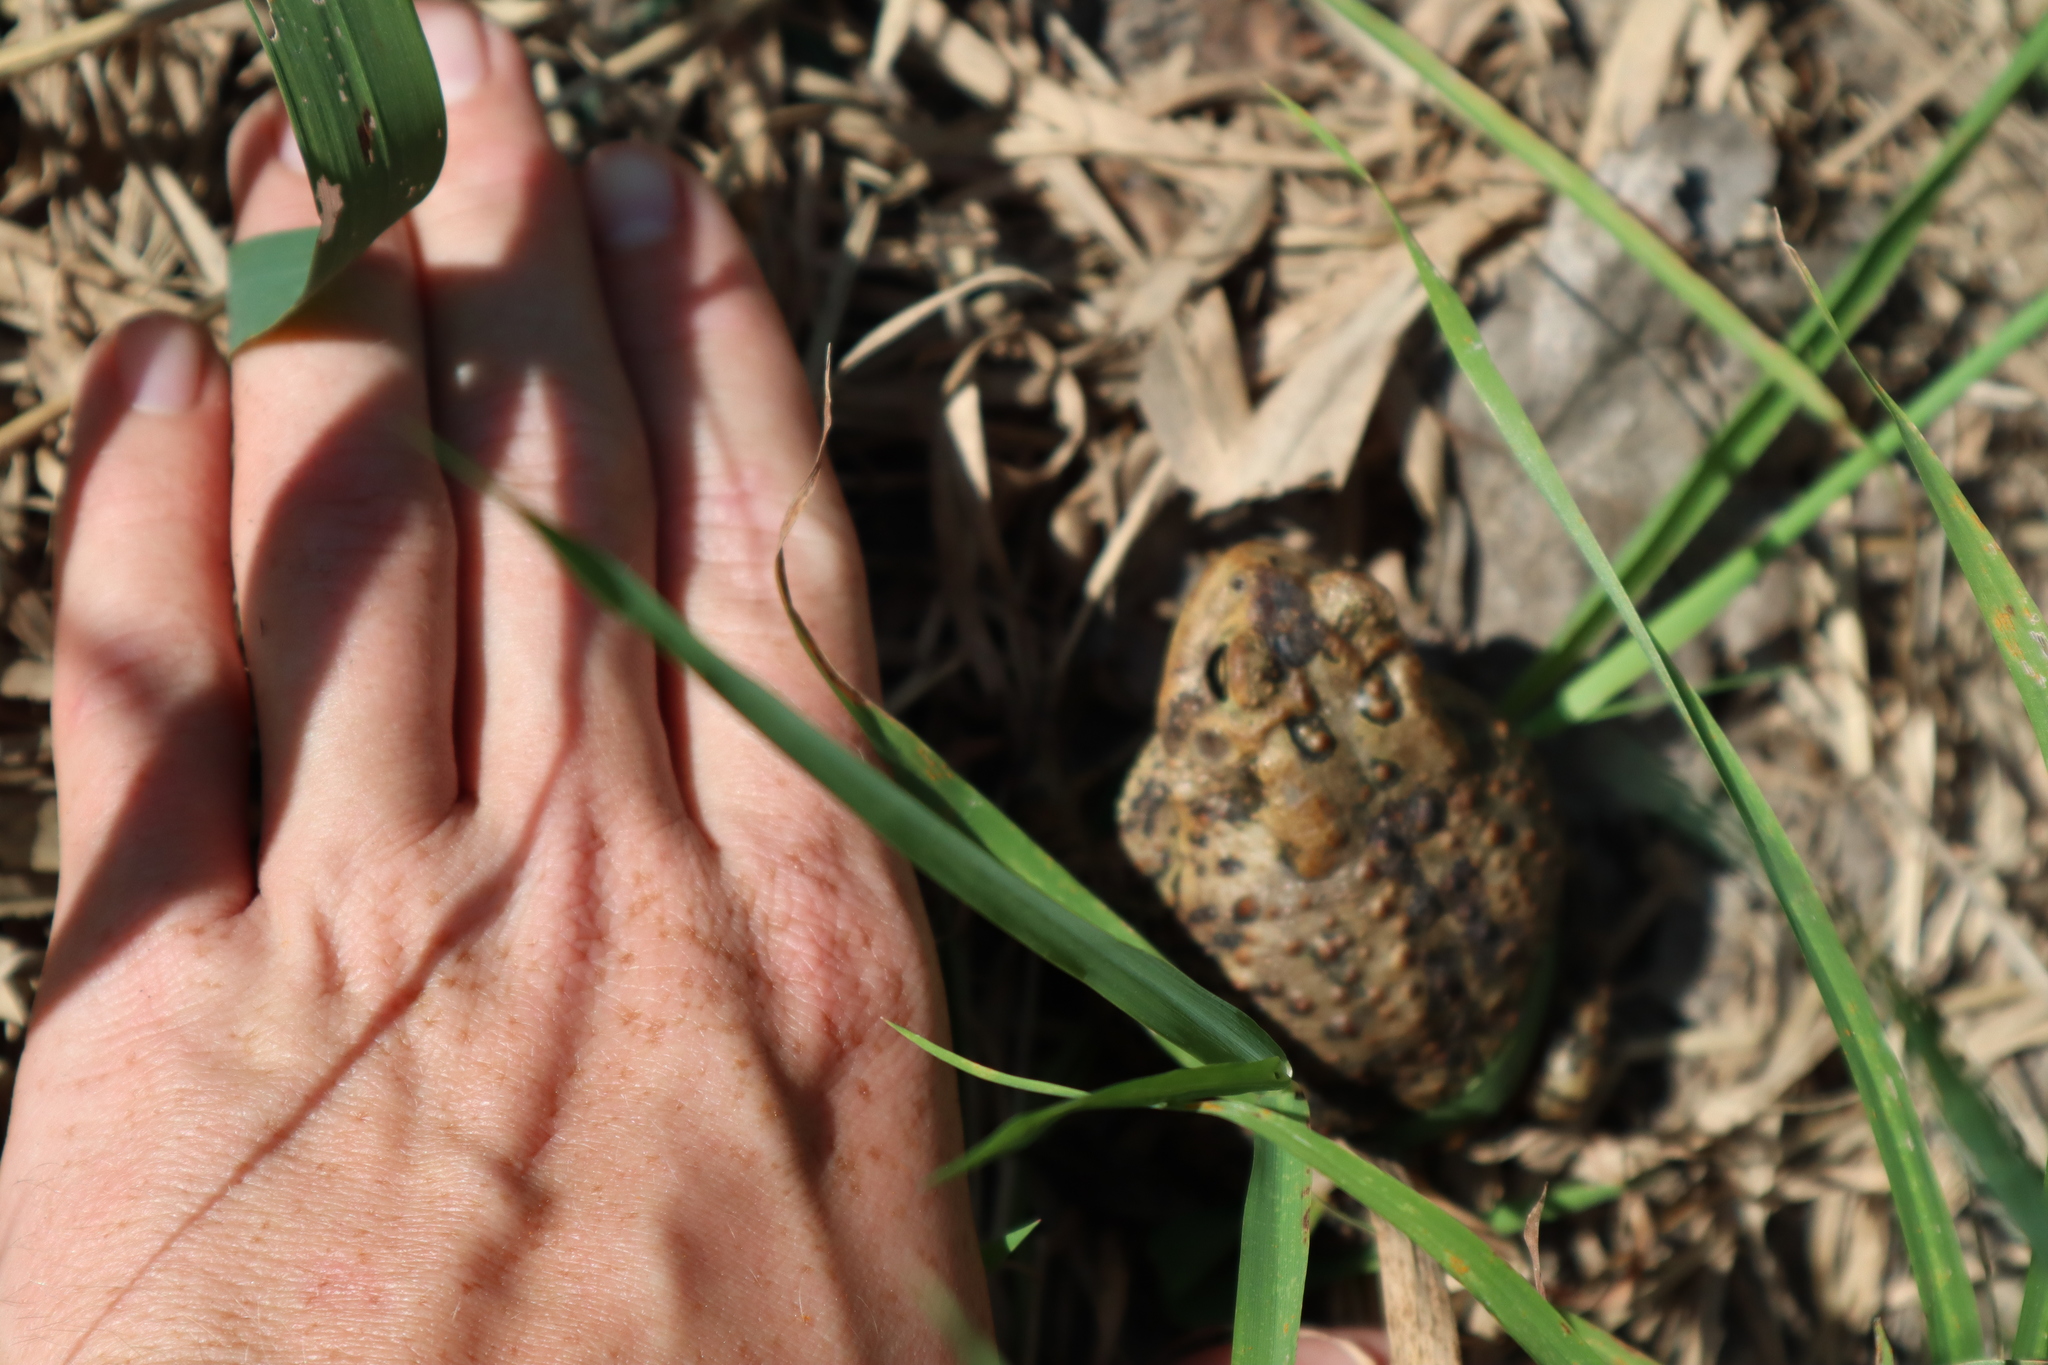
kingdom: Animalia
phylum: Chordata
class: Amphibia
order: Anura
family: Bufonidae
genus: Anaxyrus
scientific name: Anaxyrus americanus
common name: American toad
